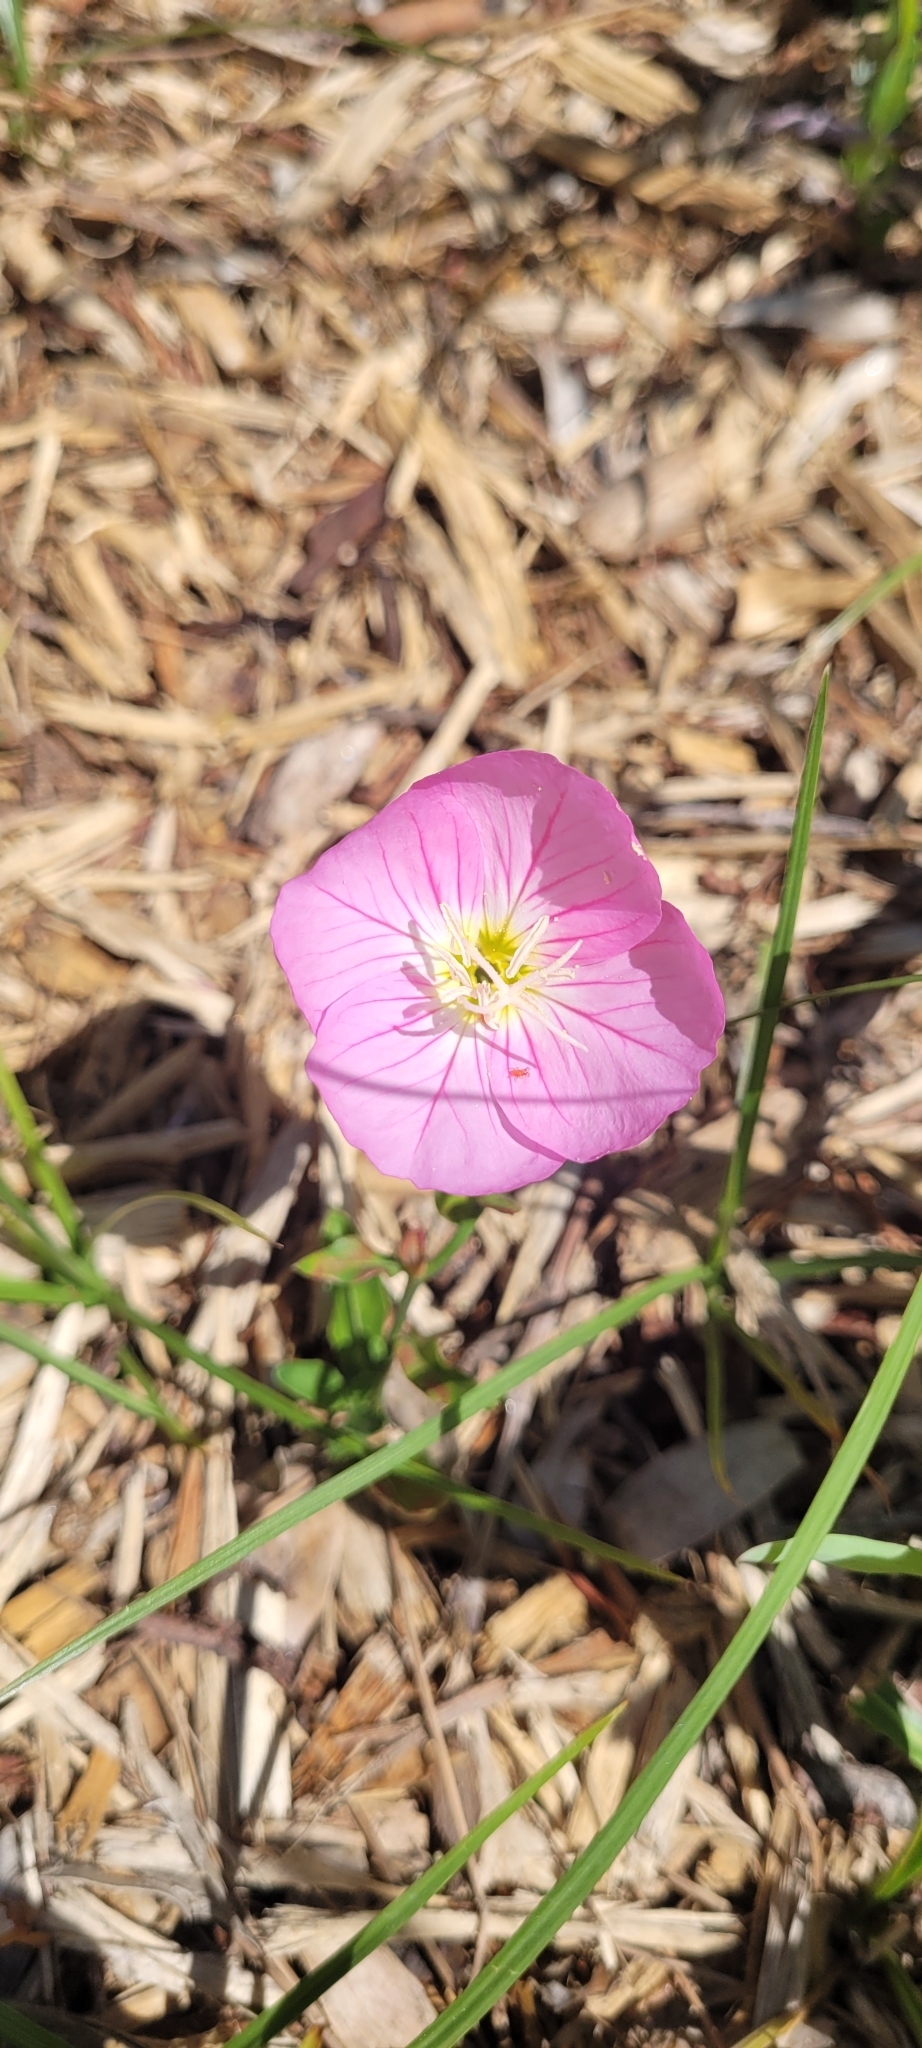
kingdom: Plantae
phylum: Tracheophyta
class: Magnoliopsida
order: Myrtales
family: Onagraceae
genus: Oenothera
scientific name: Oenothera speciosa
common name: White evening-primrose
